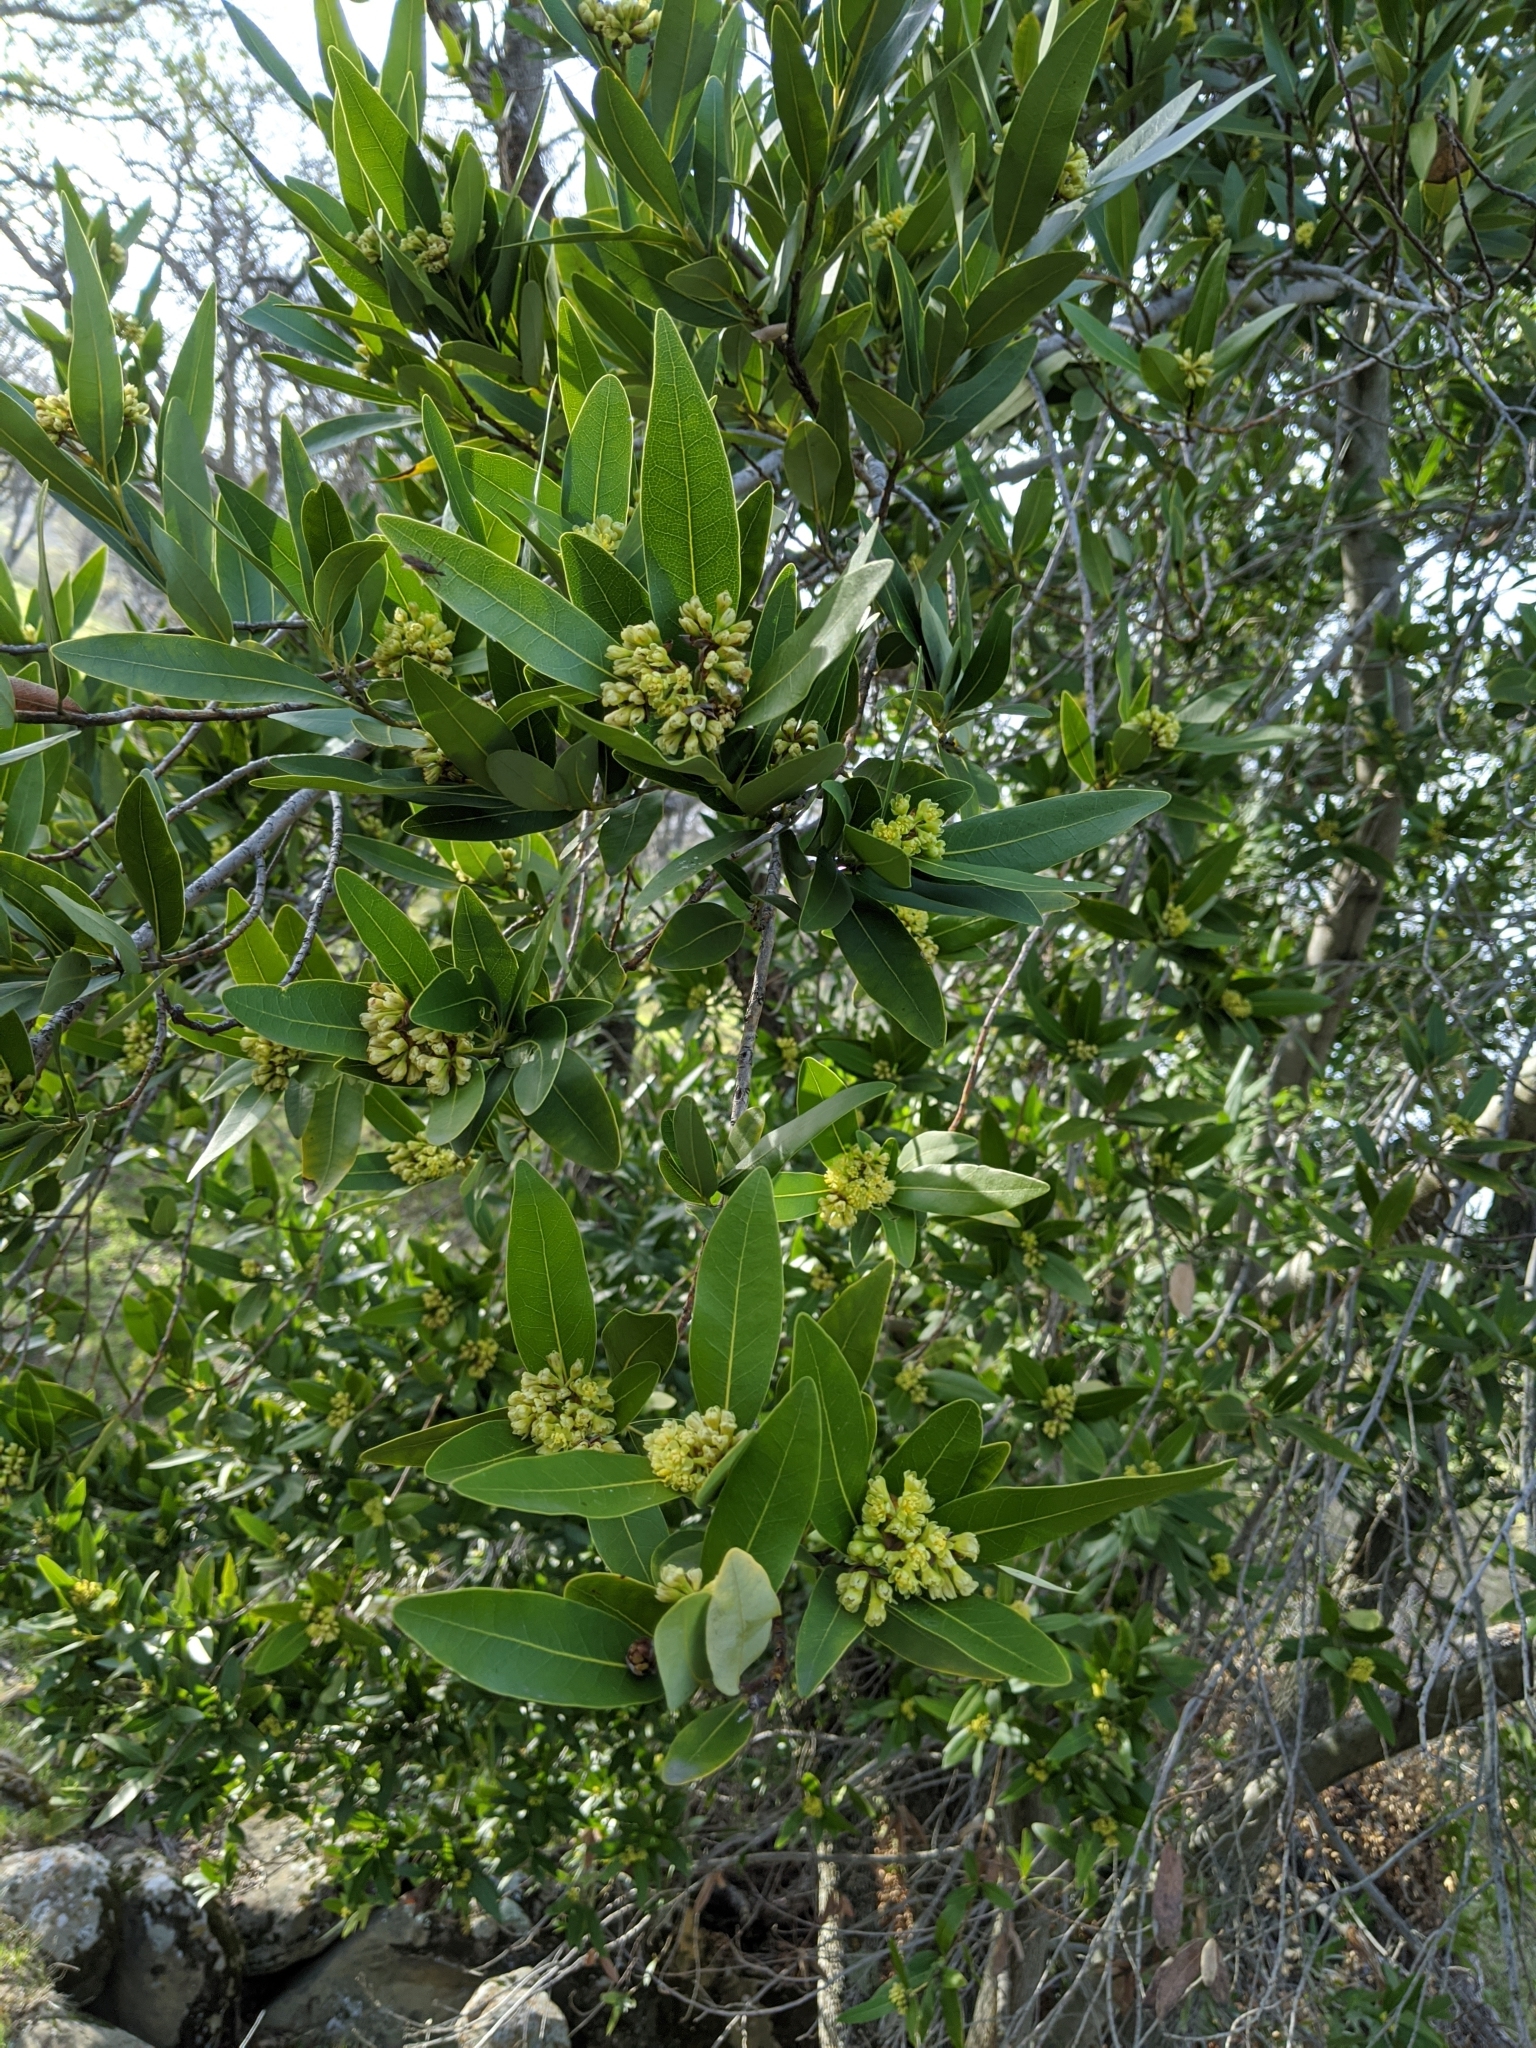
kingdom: Plantae
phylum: Tracheophyta
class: Magnoliopsida
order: Laurales
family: Lauraceae
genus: Umbellularia
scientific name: Umbellularia californica
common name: California bay
